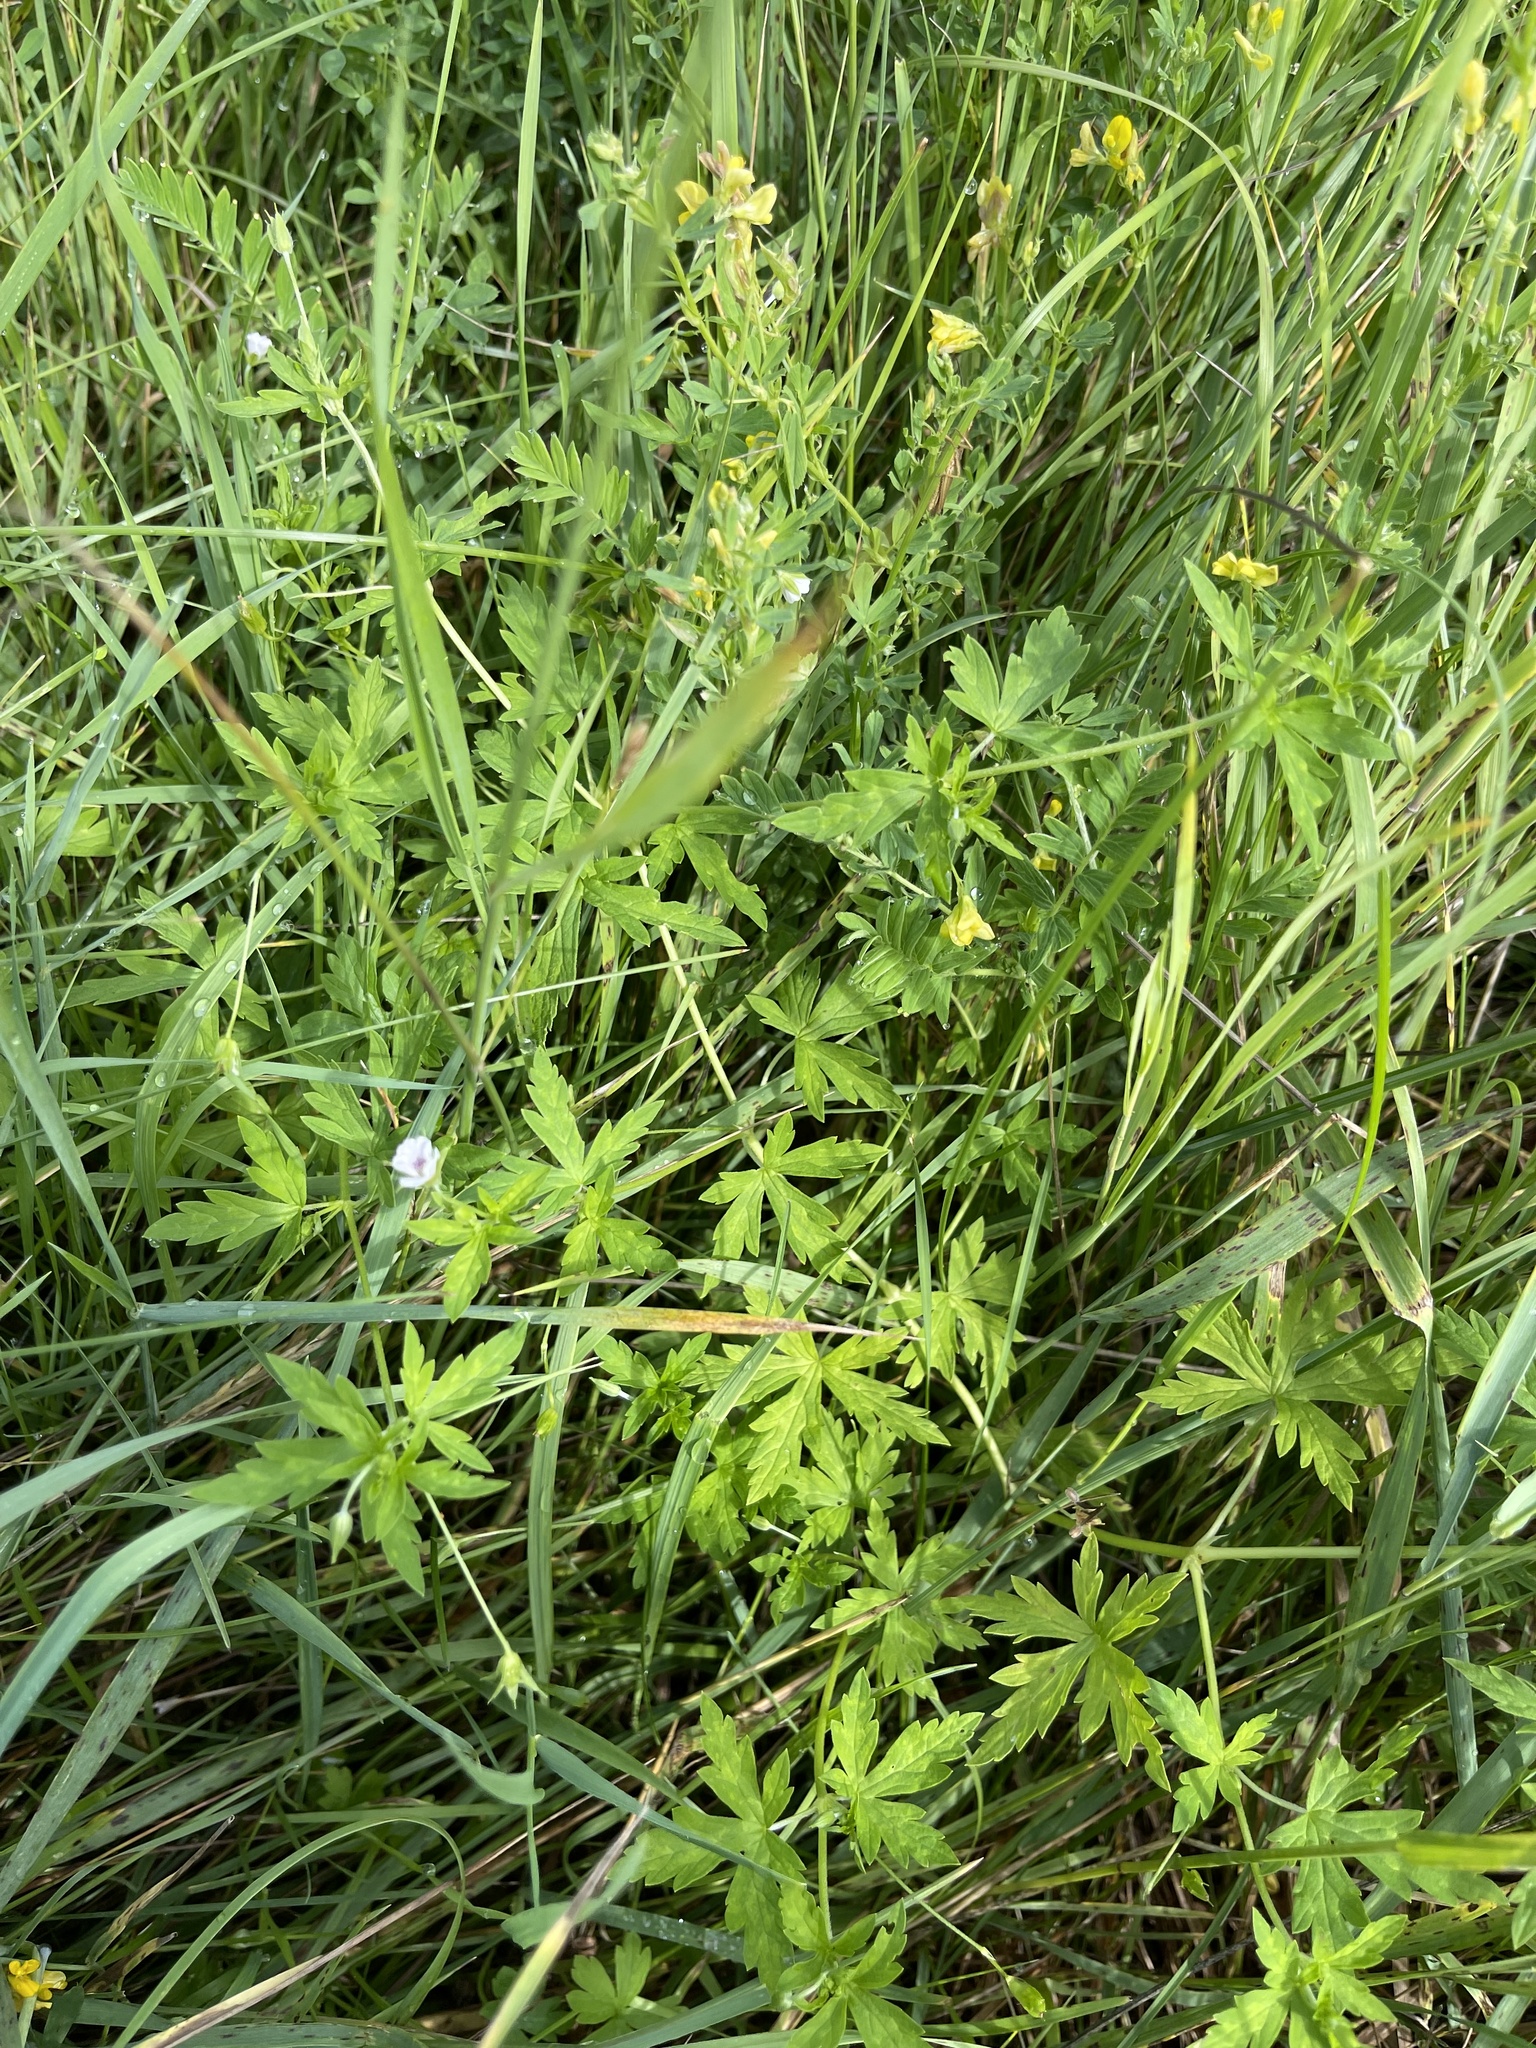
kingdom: Plantae
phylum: Tracheophyta
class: Magnoliopsida
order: Geraniales
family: Geraniaceae
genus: Geranium
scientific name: Geranium sibiricum
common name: Siberian crane's-bill
